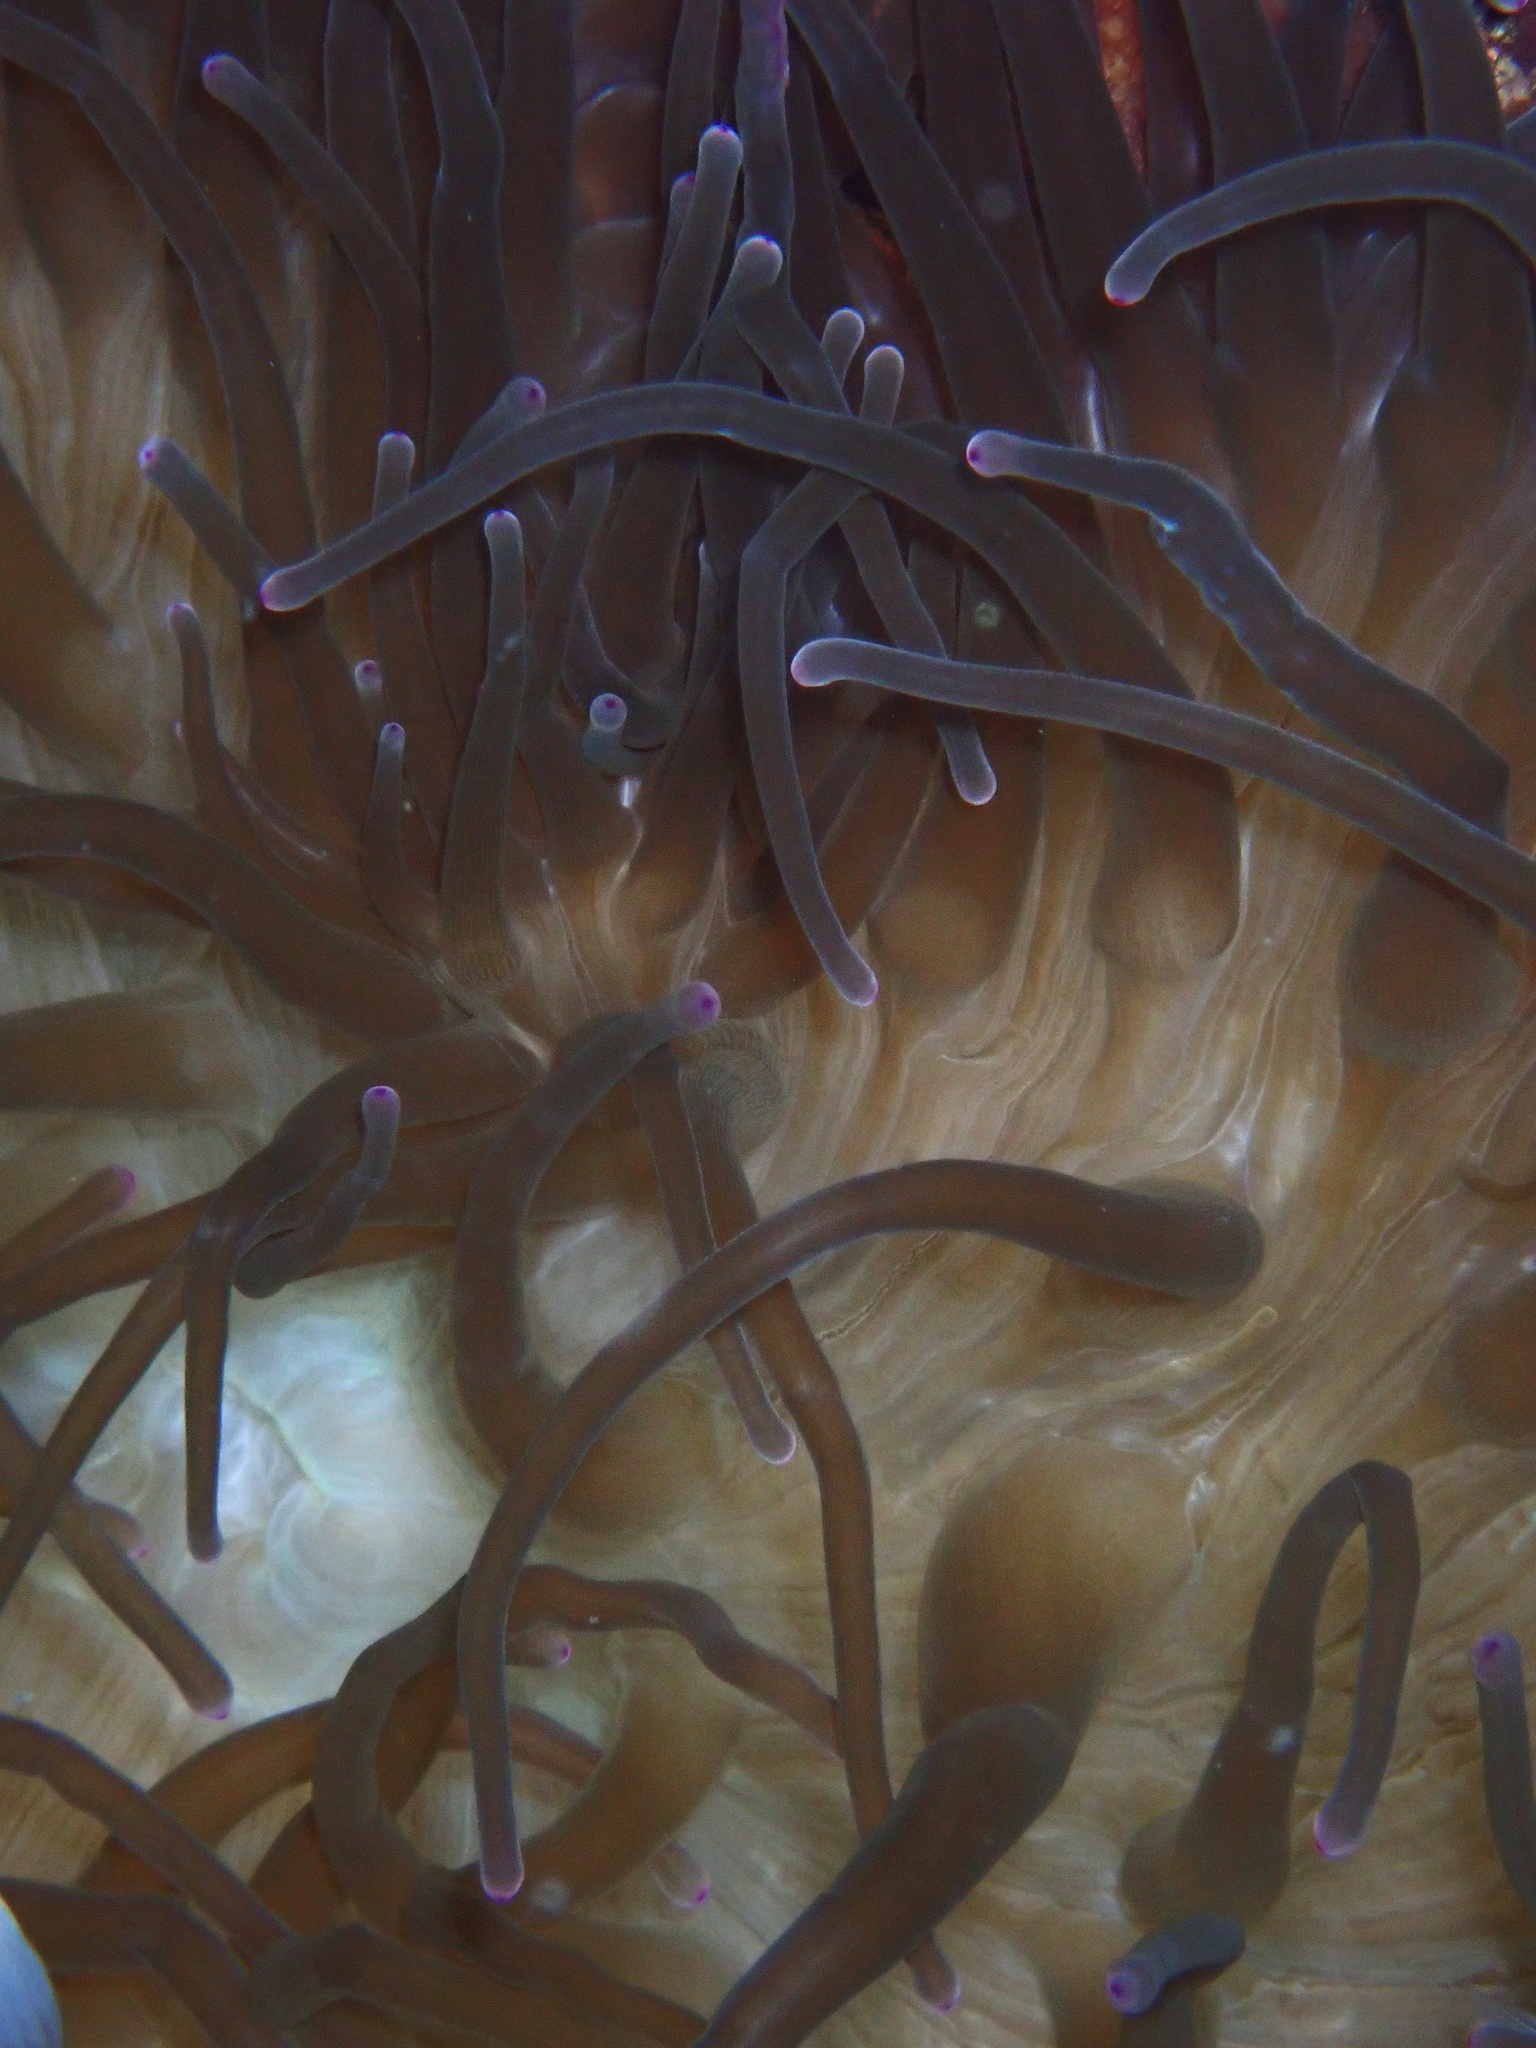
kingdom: Animalia
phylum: Cnidaria
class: Anthozoa
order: Actiniaria
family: Actiniidae
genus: Entacmaea
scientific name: Entacmaea quadricolor
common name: Bulb tentacle sea anemone
